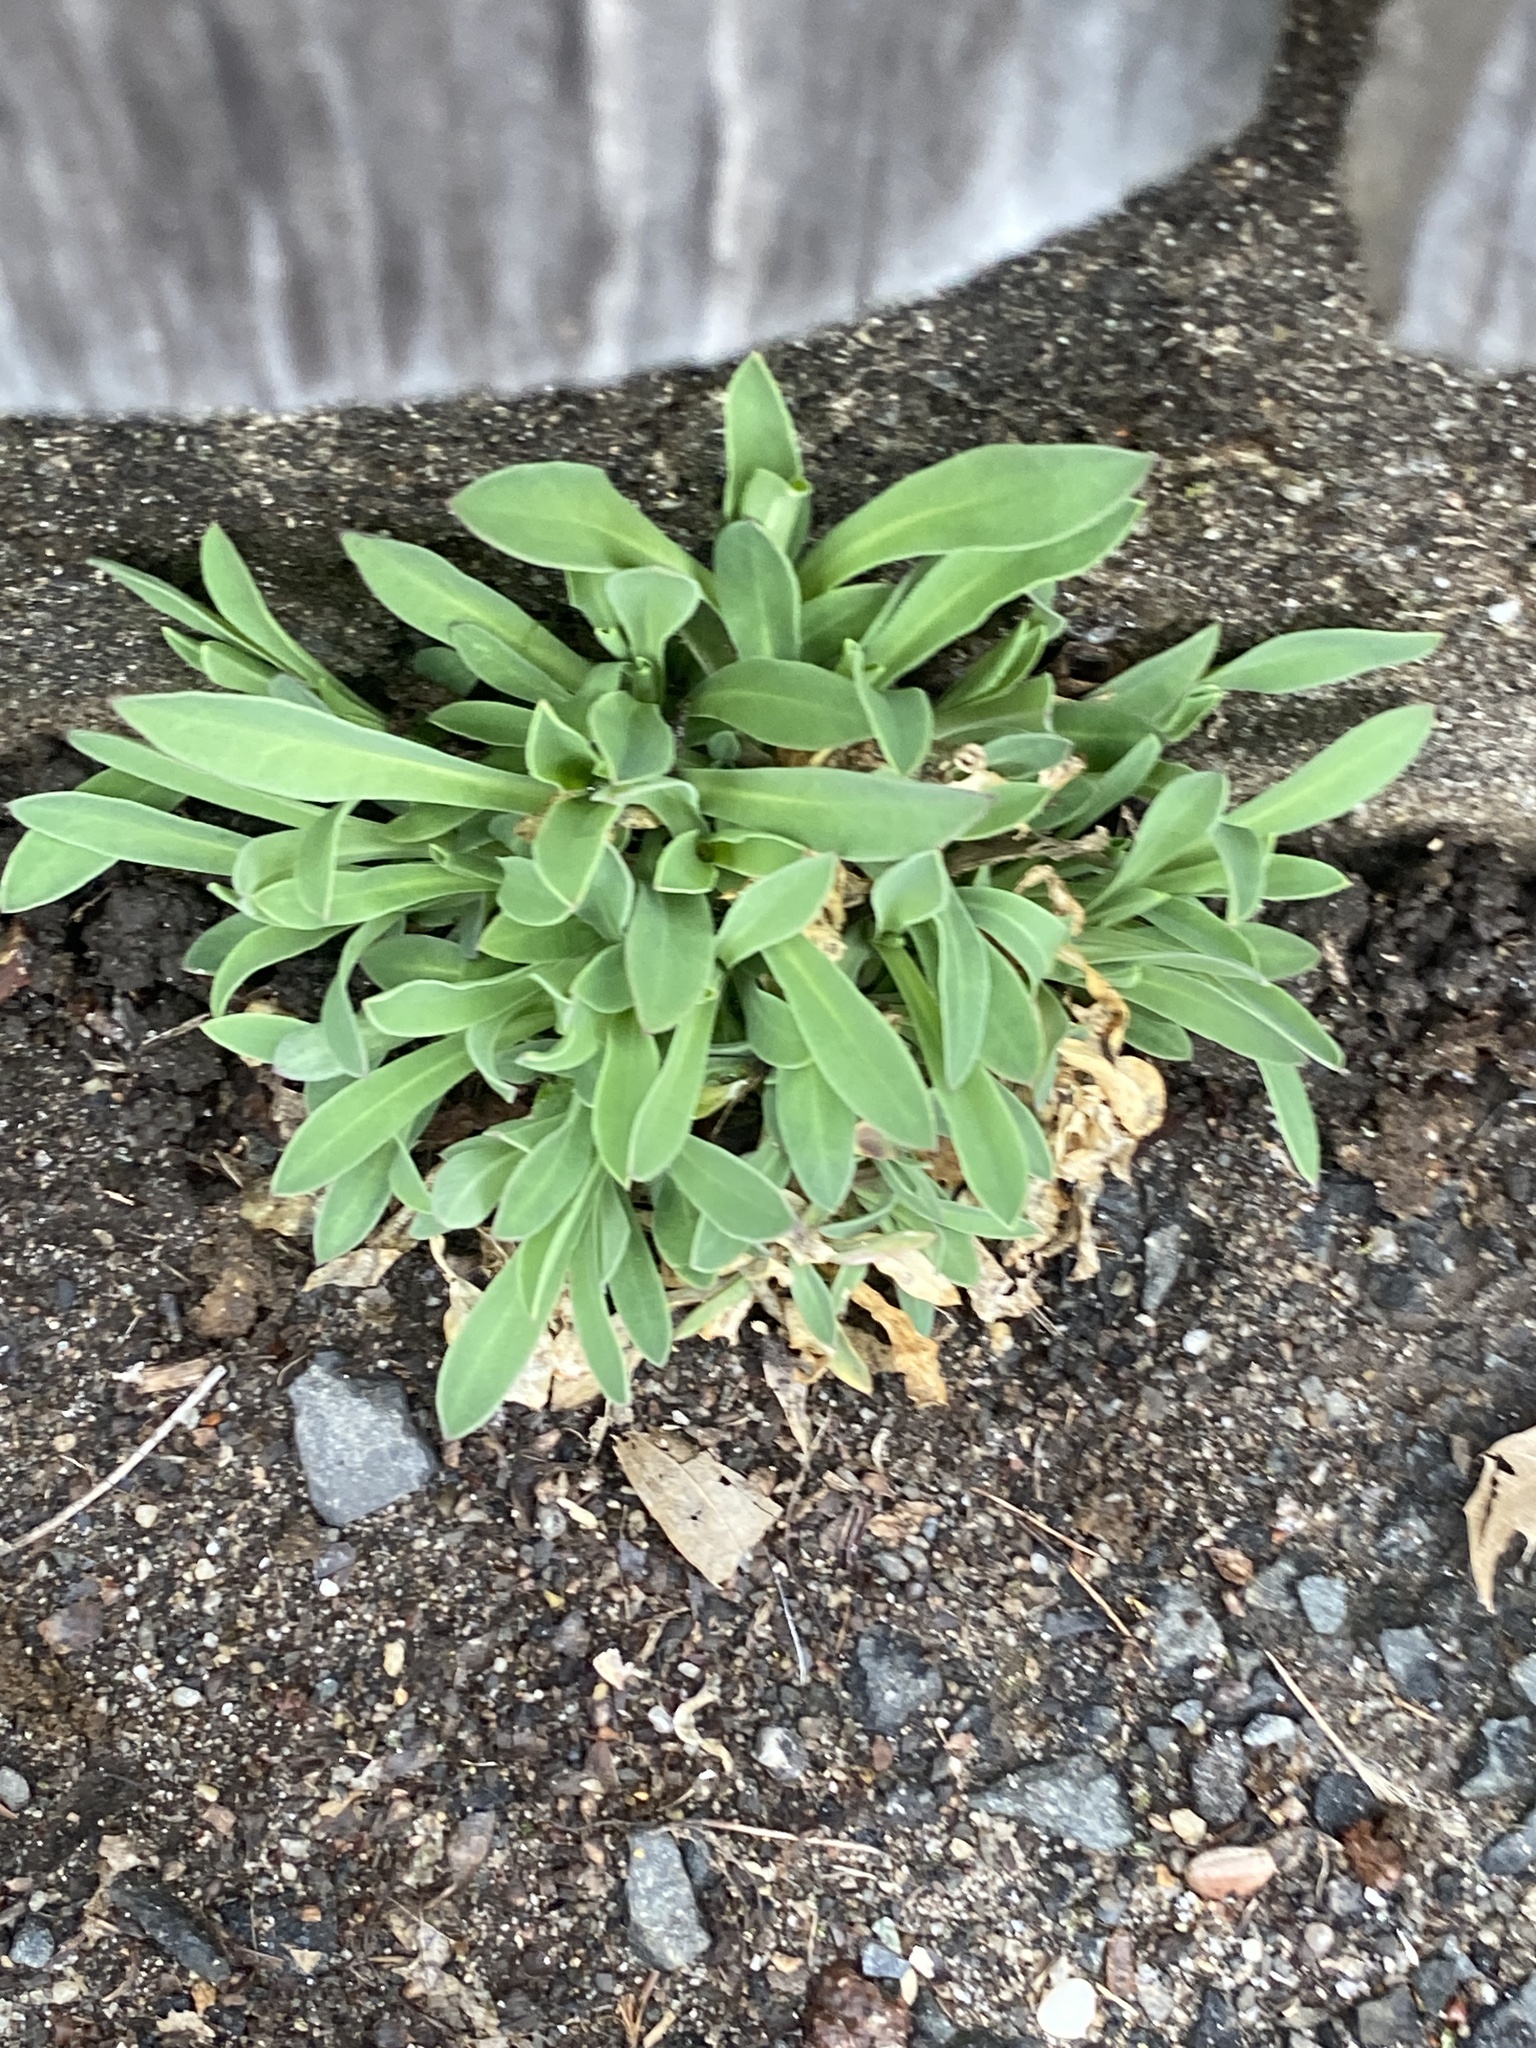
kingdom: Plantae
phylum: Tracheophyta
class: Magnoliopsida
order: Caryophyllales
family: Caryophyllaceae
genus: Silene
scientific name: Silene vulgaris
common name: Bladder campion
